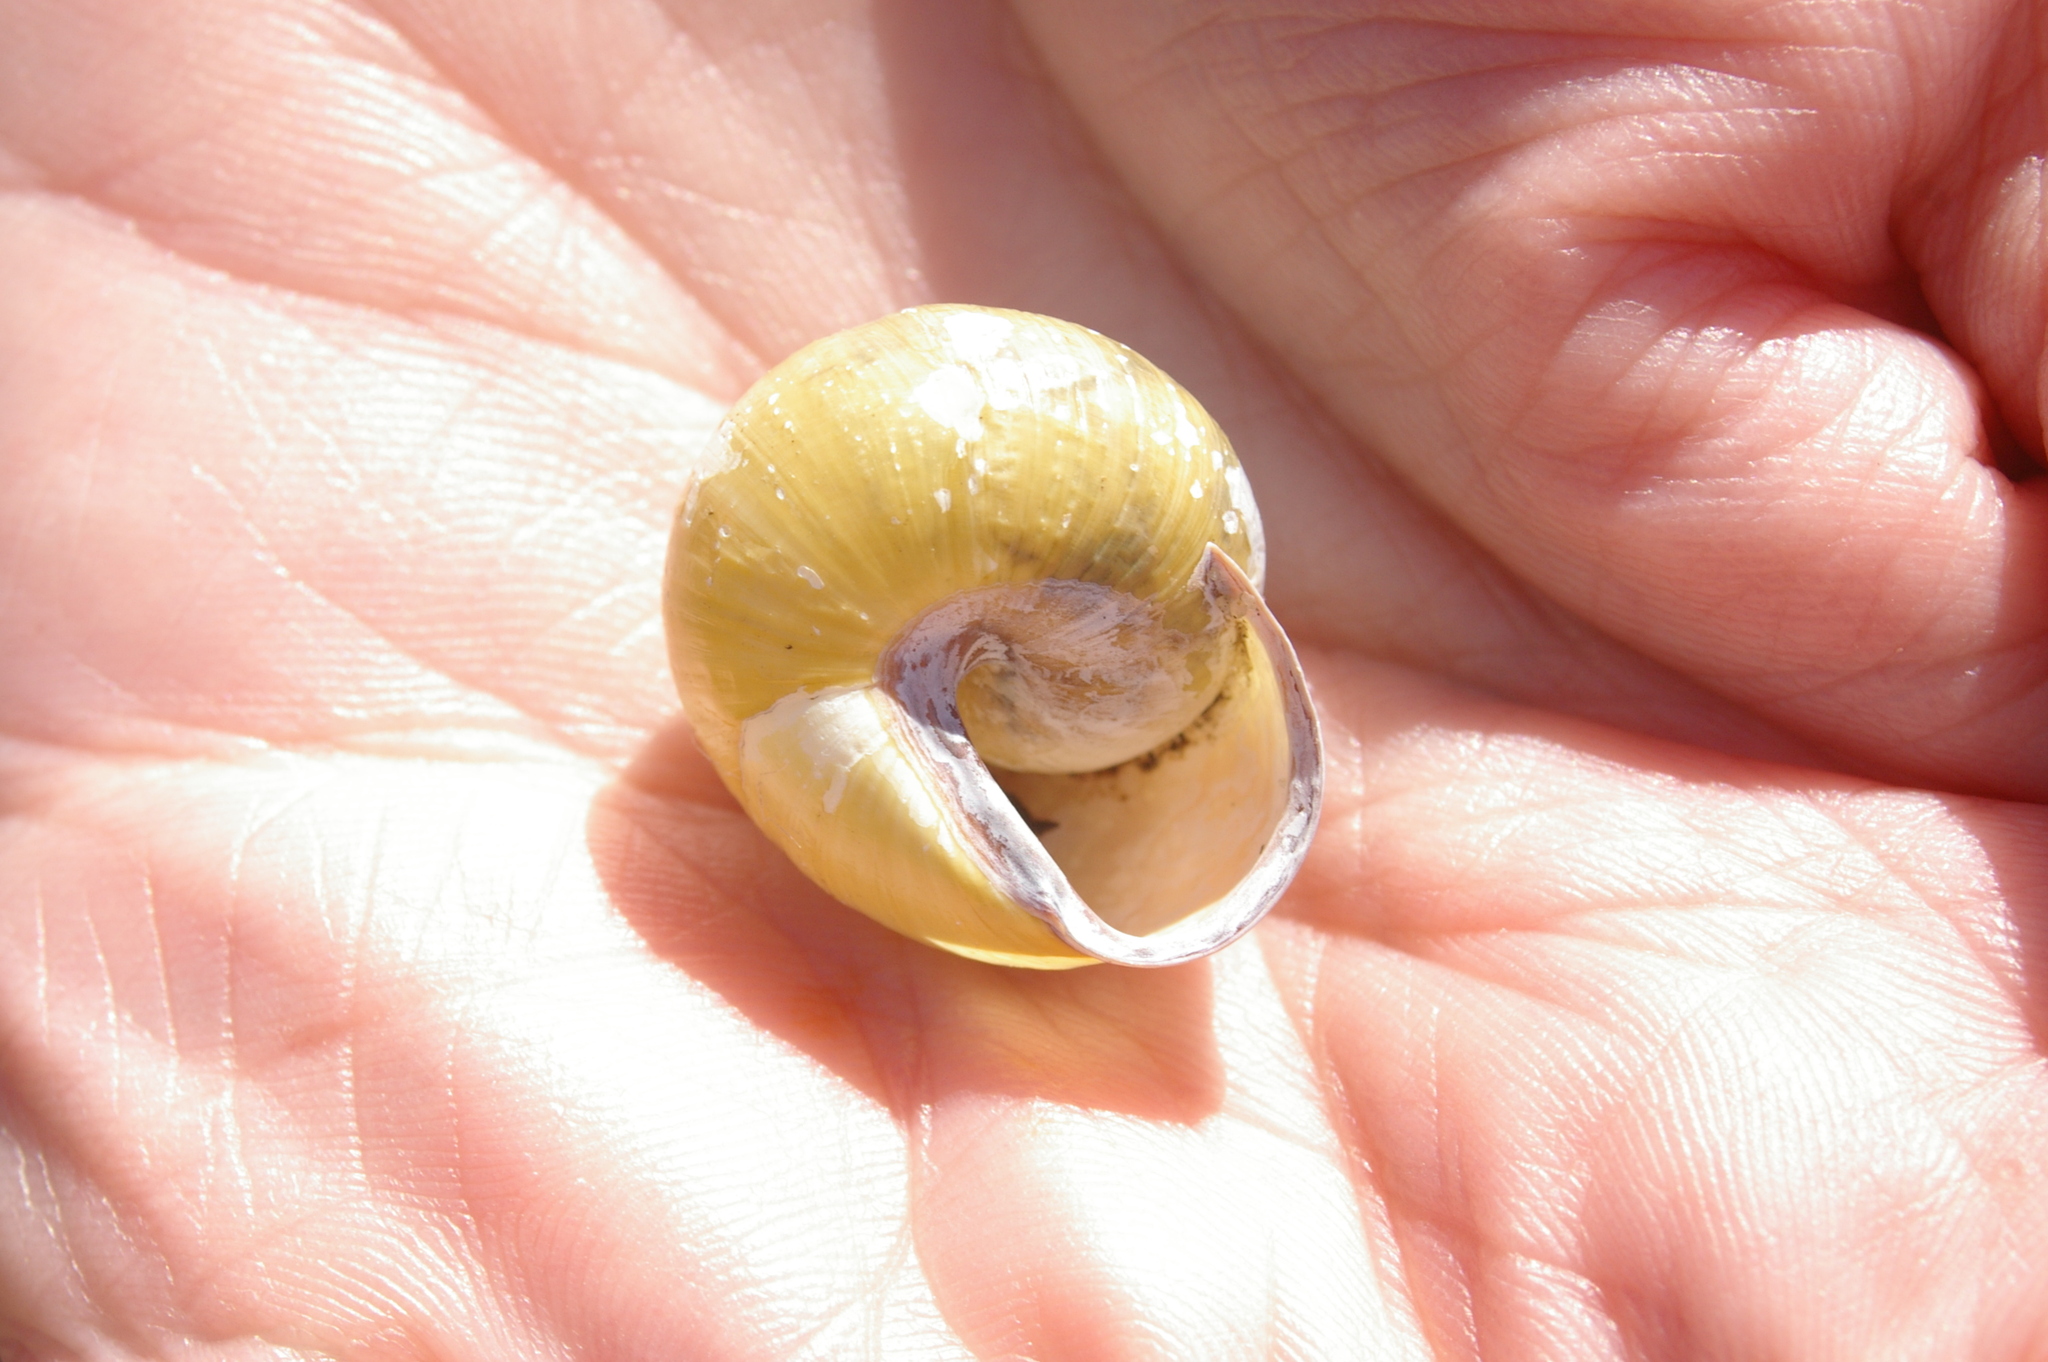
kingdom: Animalia
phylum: Mollusca
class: Gastropoda
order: Stylommatophora
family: Helicidae
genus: Cepaea
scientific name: Cepaea nemoralis
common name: Grovesnail
